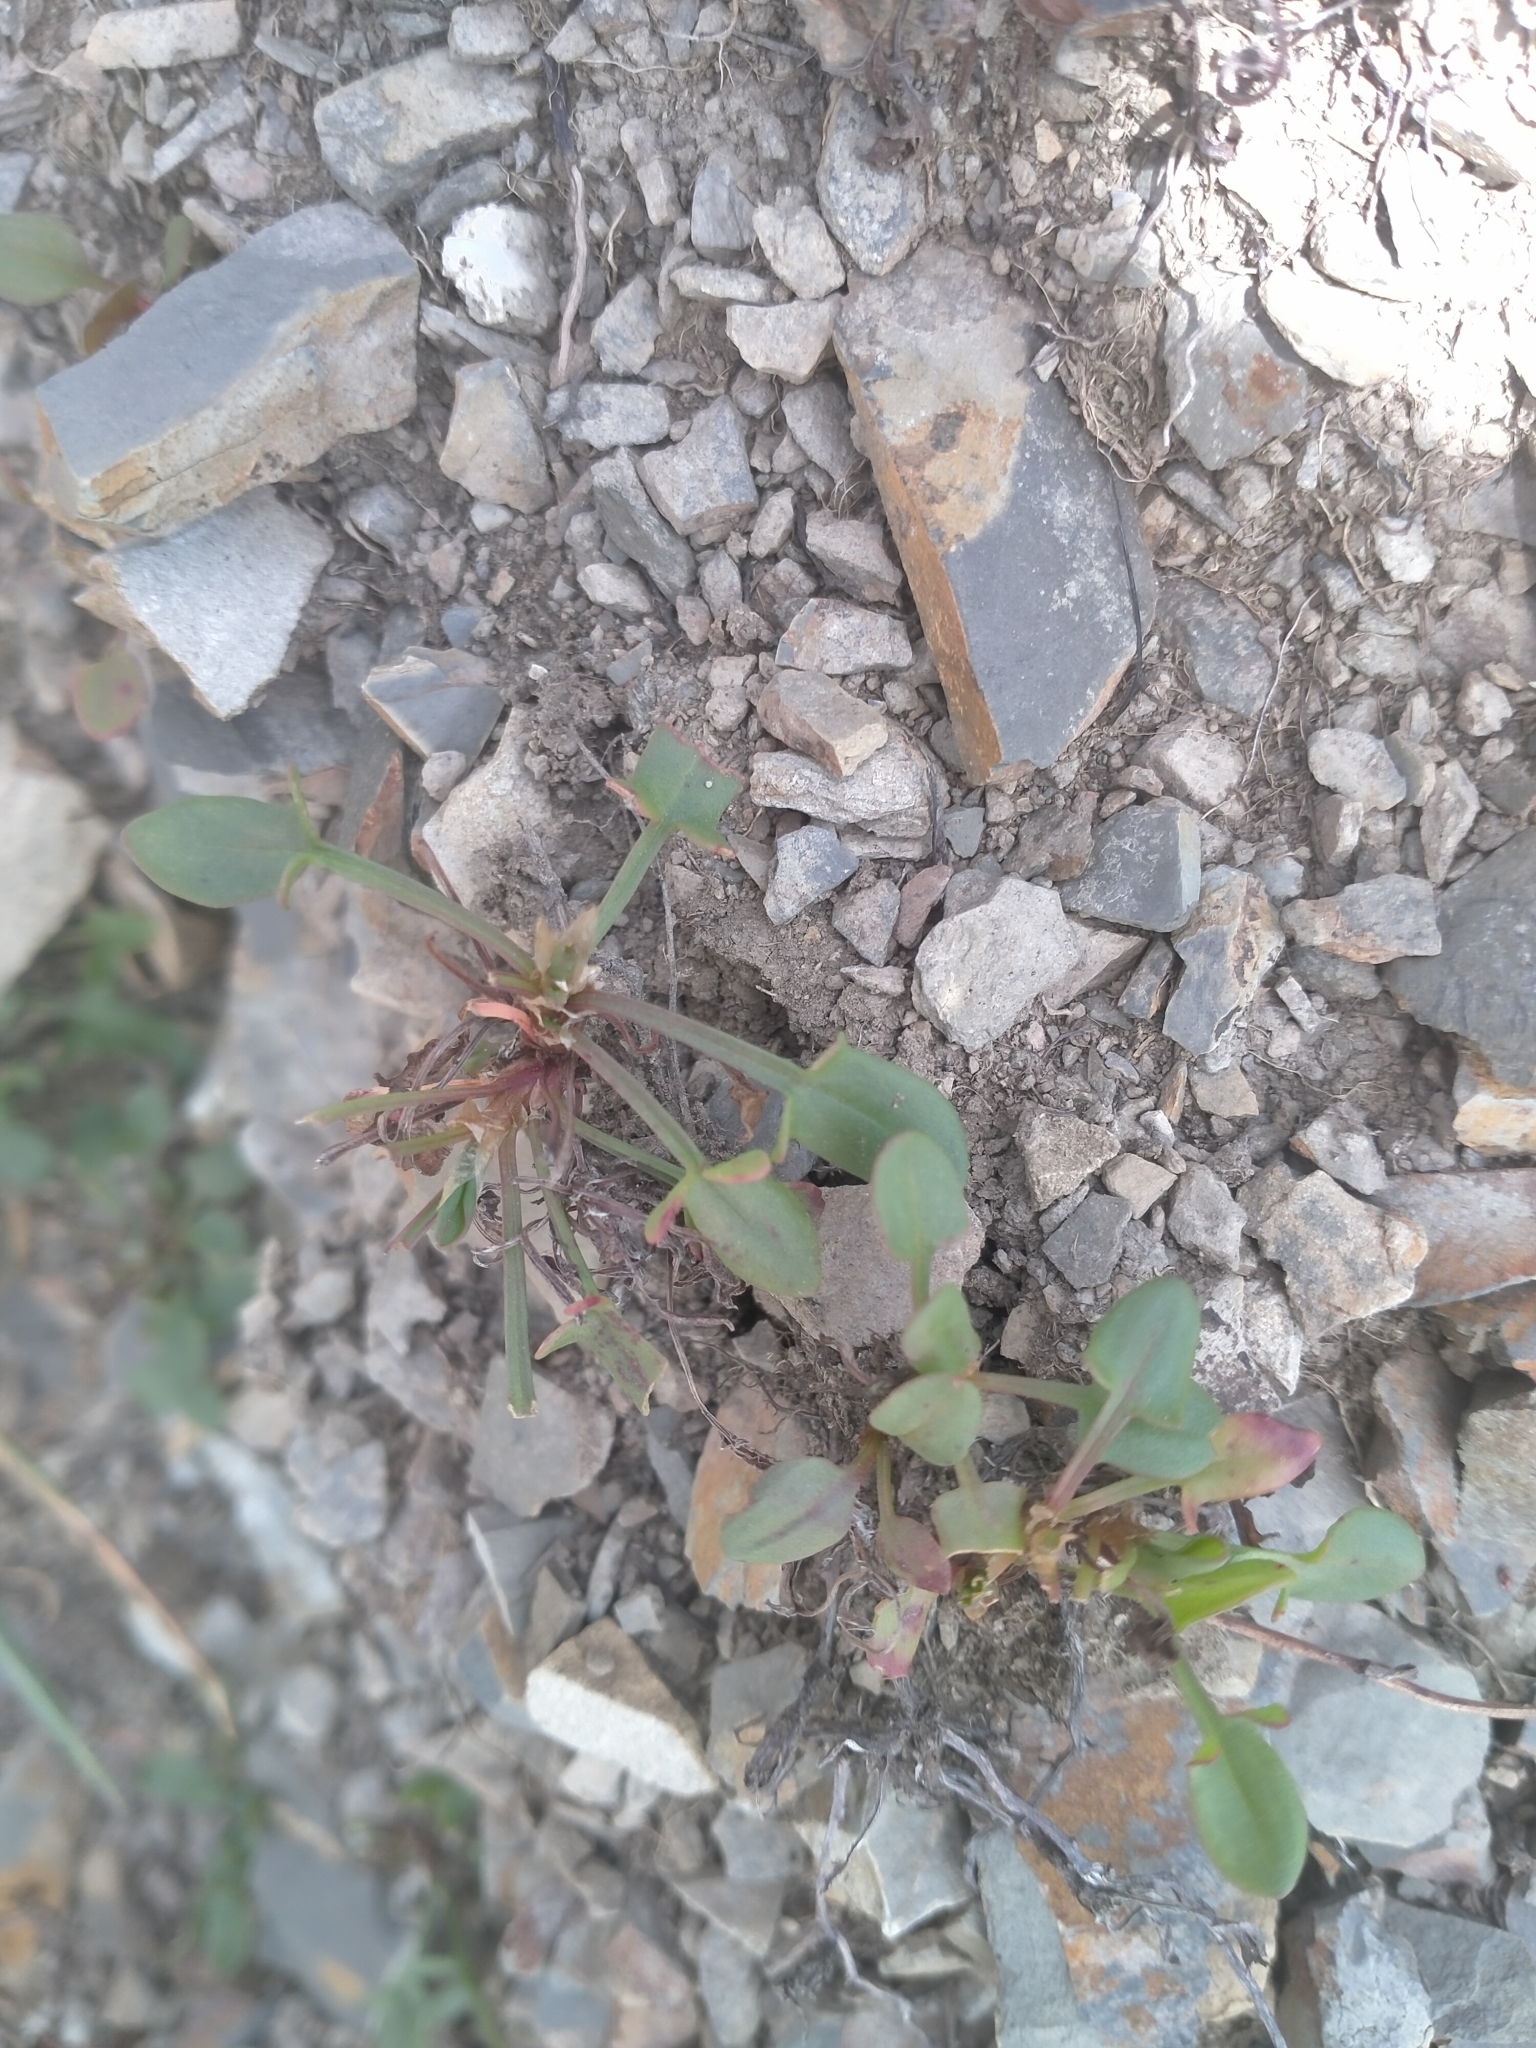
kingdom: Plantae
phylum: Tracheophyta
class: Magnoliopsida
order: Caryophyllales
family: Polygonaceae
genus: Rumex
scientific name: Rumex acetosella
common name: Common sheep sorrel
